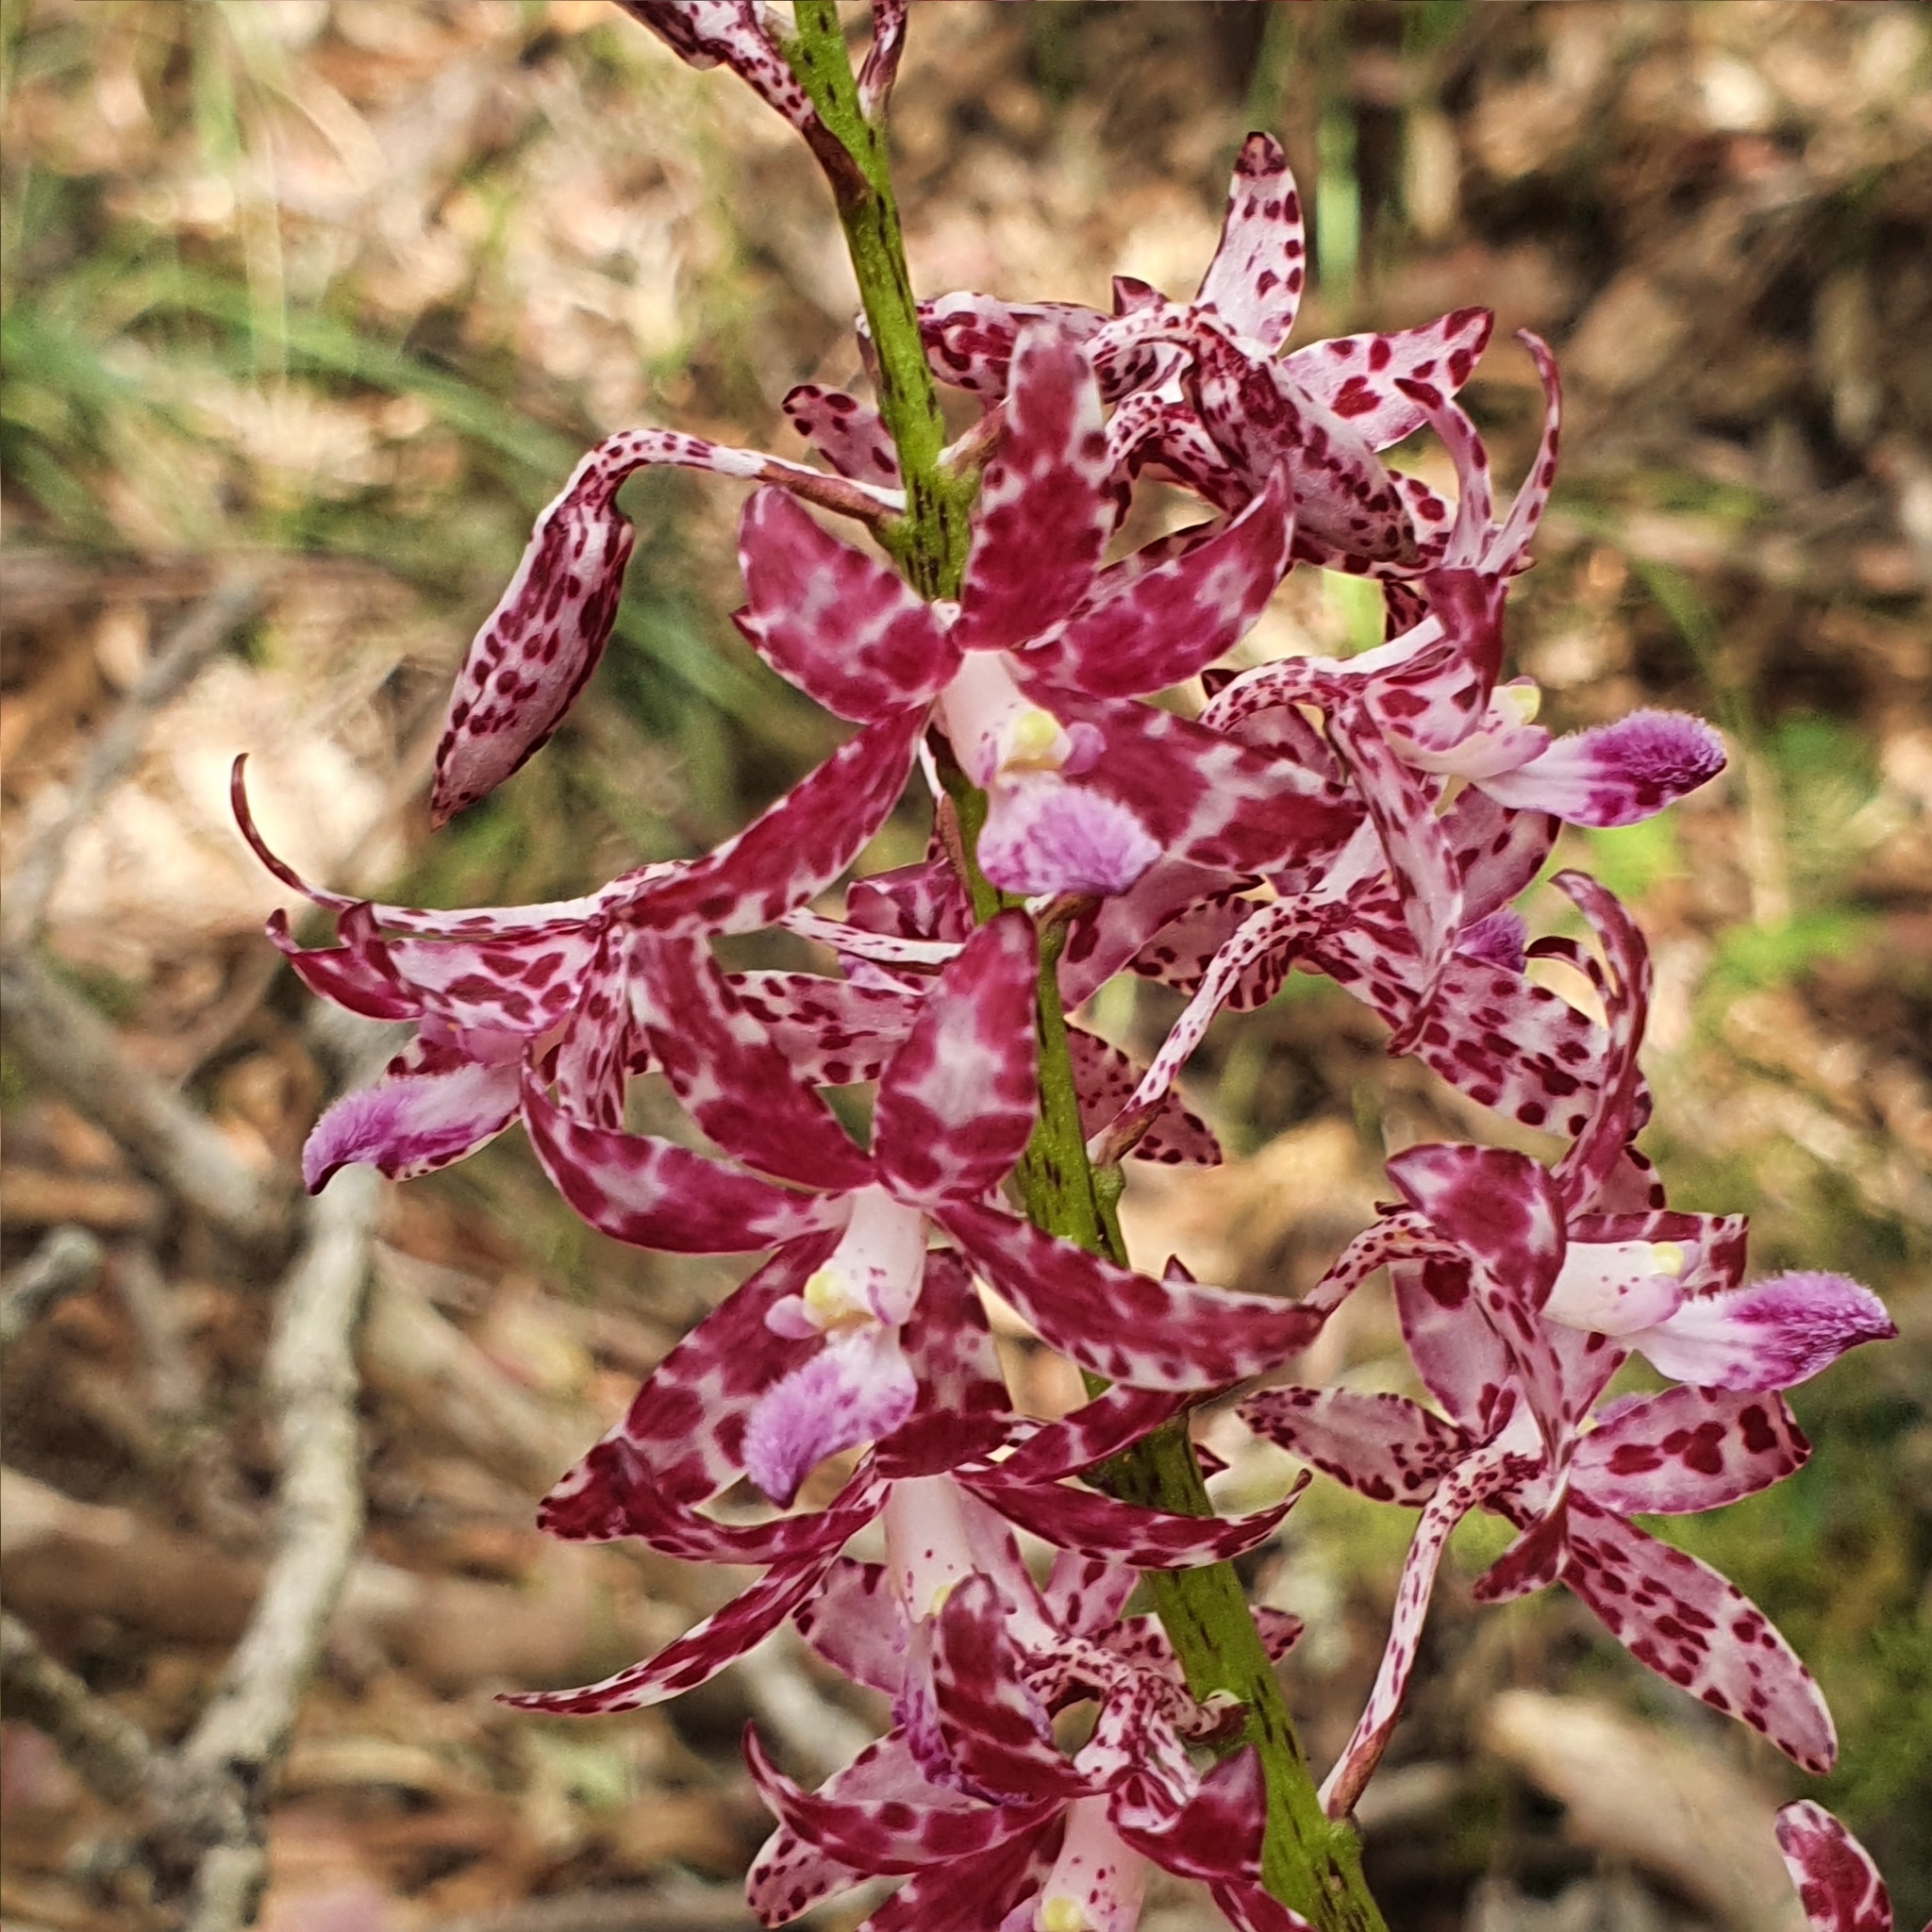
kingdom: Plantae
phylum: Tracheophyta
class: Liliopsida
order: Asparagales
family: Orchidaceae
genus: Dipodium
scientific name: Dipodium variegatum
